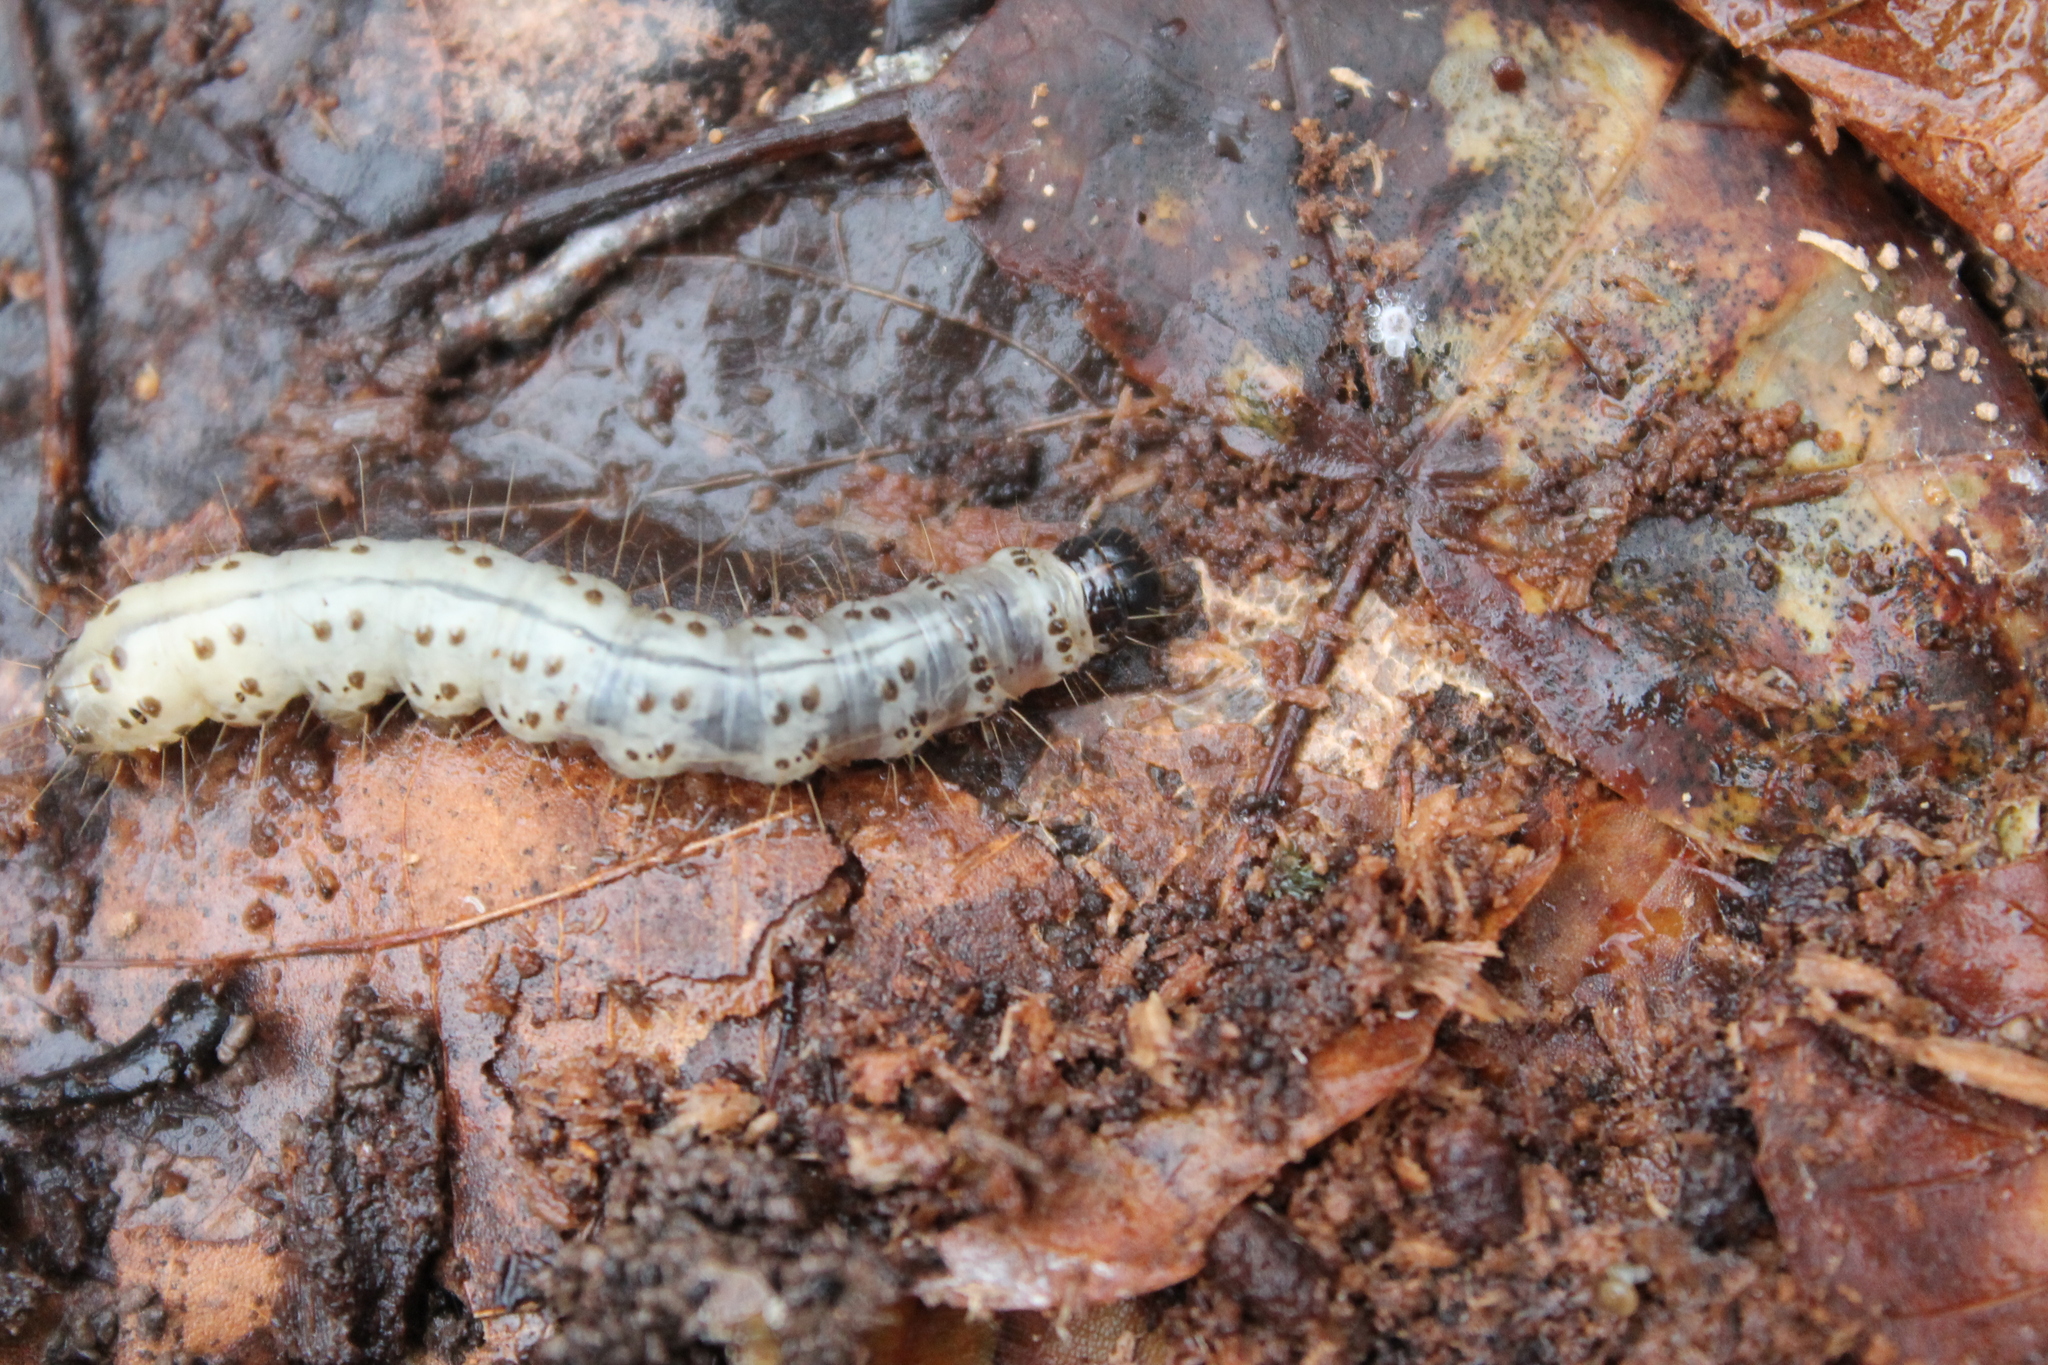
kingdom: Animalia
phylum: Arthropoda
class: Insecta
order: Lepidoptera
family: Erebidae
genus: Scolecocampa
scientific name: Scolecocampa liburna
